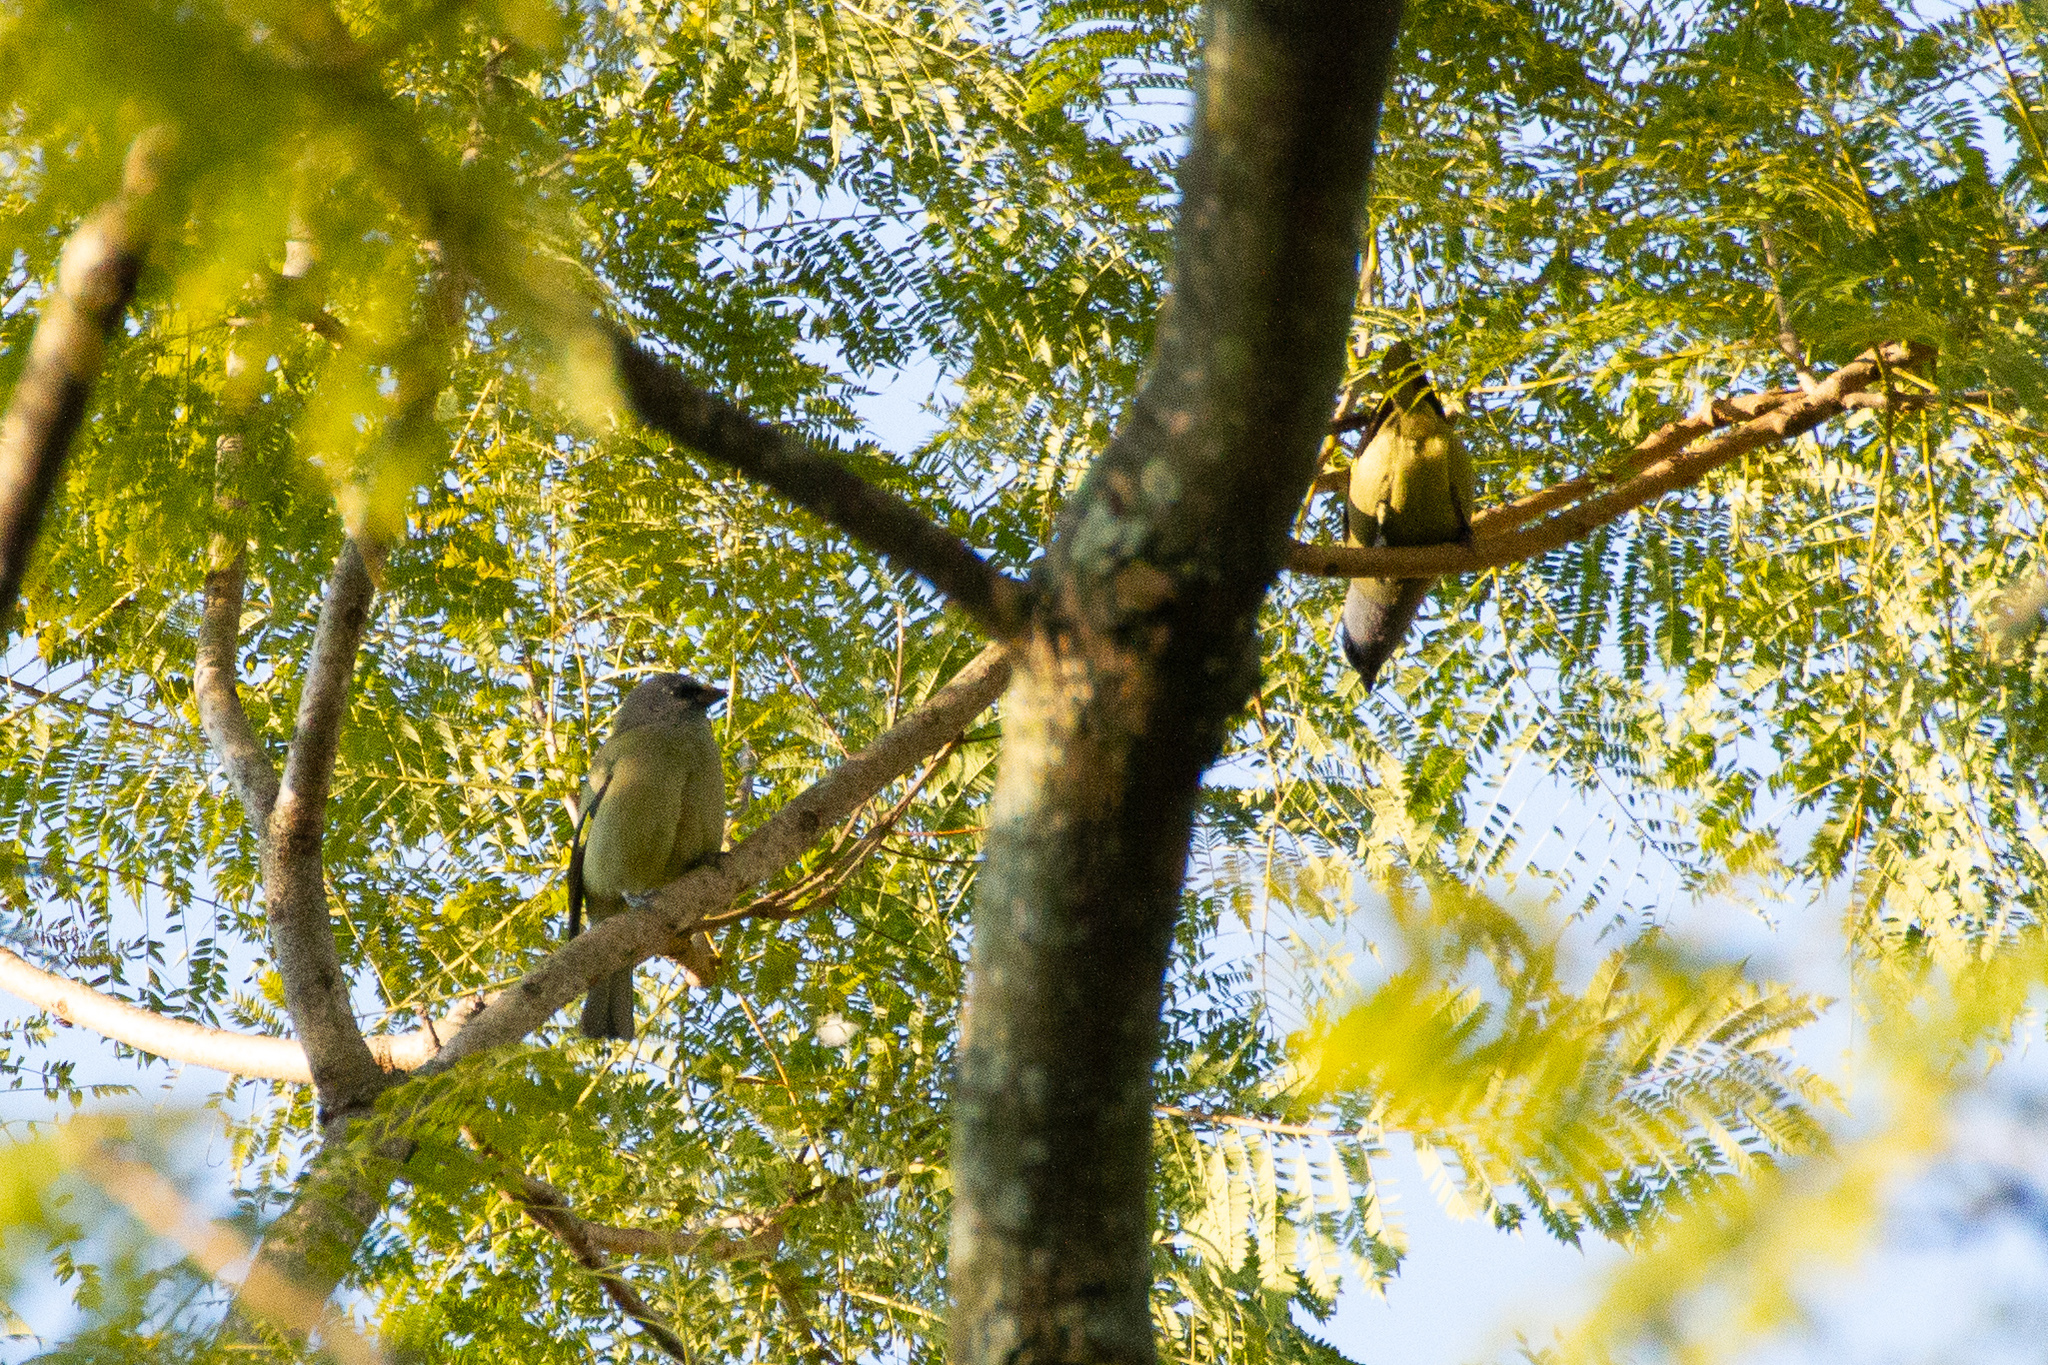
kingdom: Animalia
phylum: Chordata
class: Aves
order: Passeriformes
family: Thraupidae
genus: Thraupis
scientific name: Thraupis abbas
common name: Yellow-winged tanager
